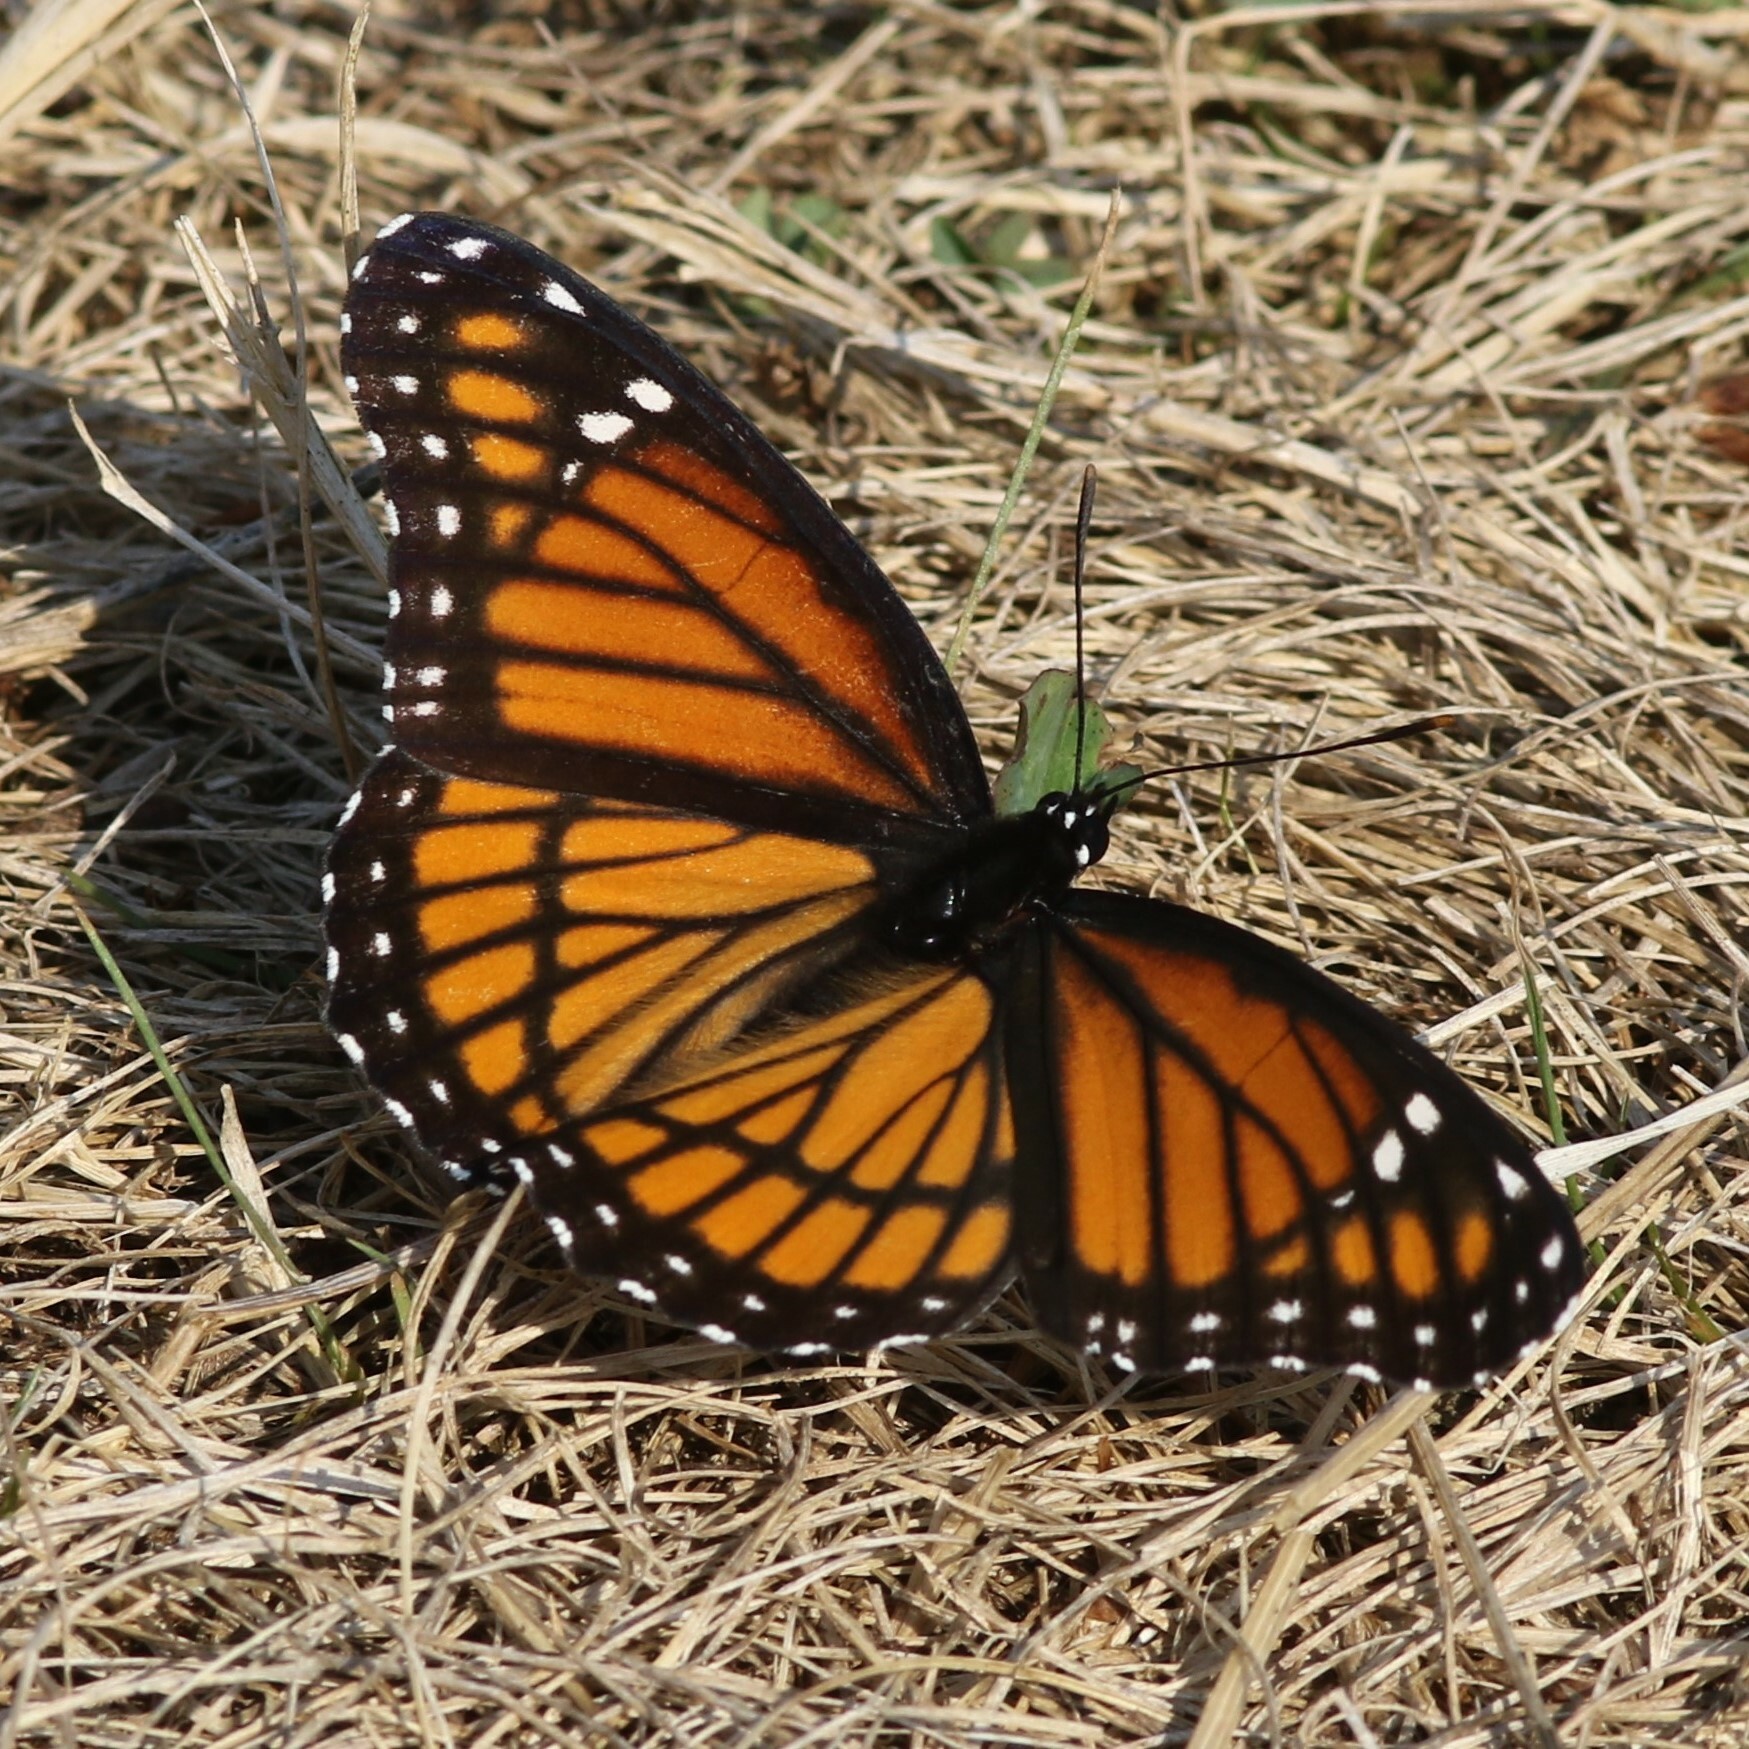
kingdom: Animalia
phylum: Arthropoda
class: Insecta
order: Lepidoptera
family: Nymphalidae
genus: Limenitis
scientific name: Limenitis archippus
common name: Viceroy
